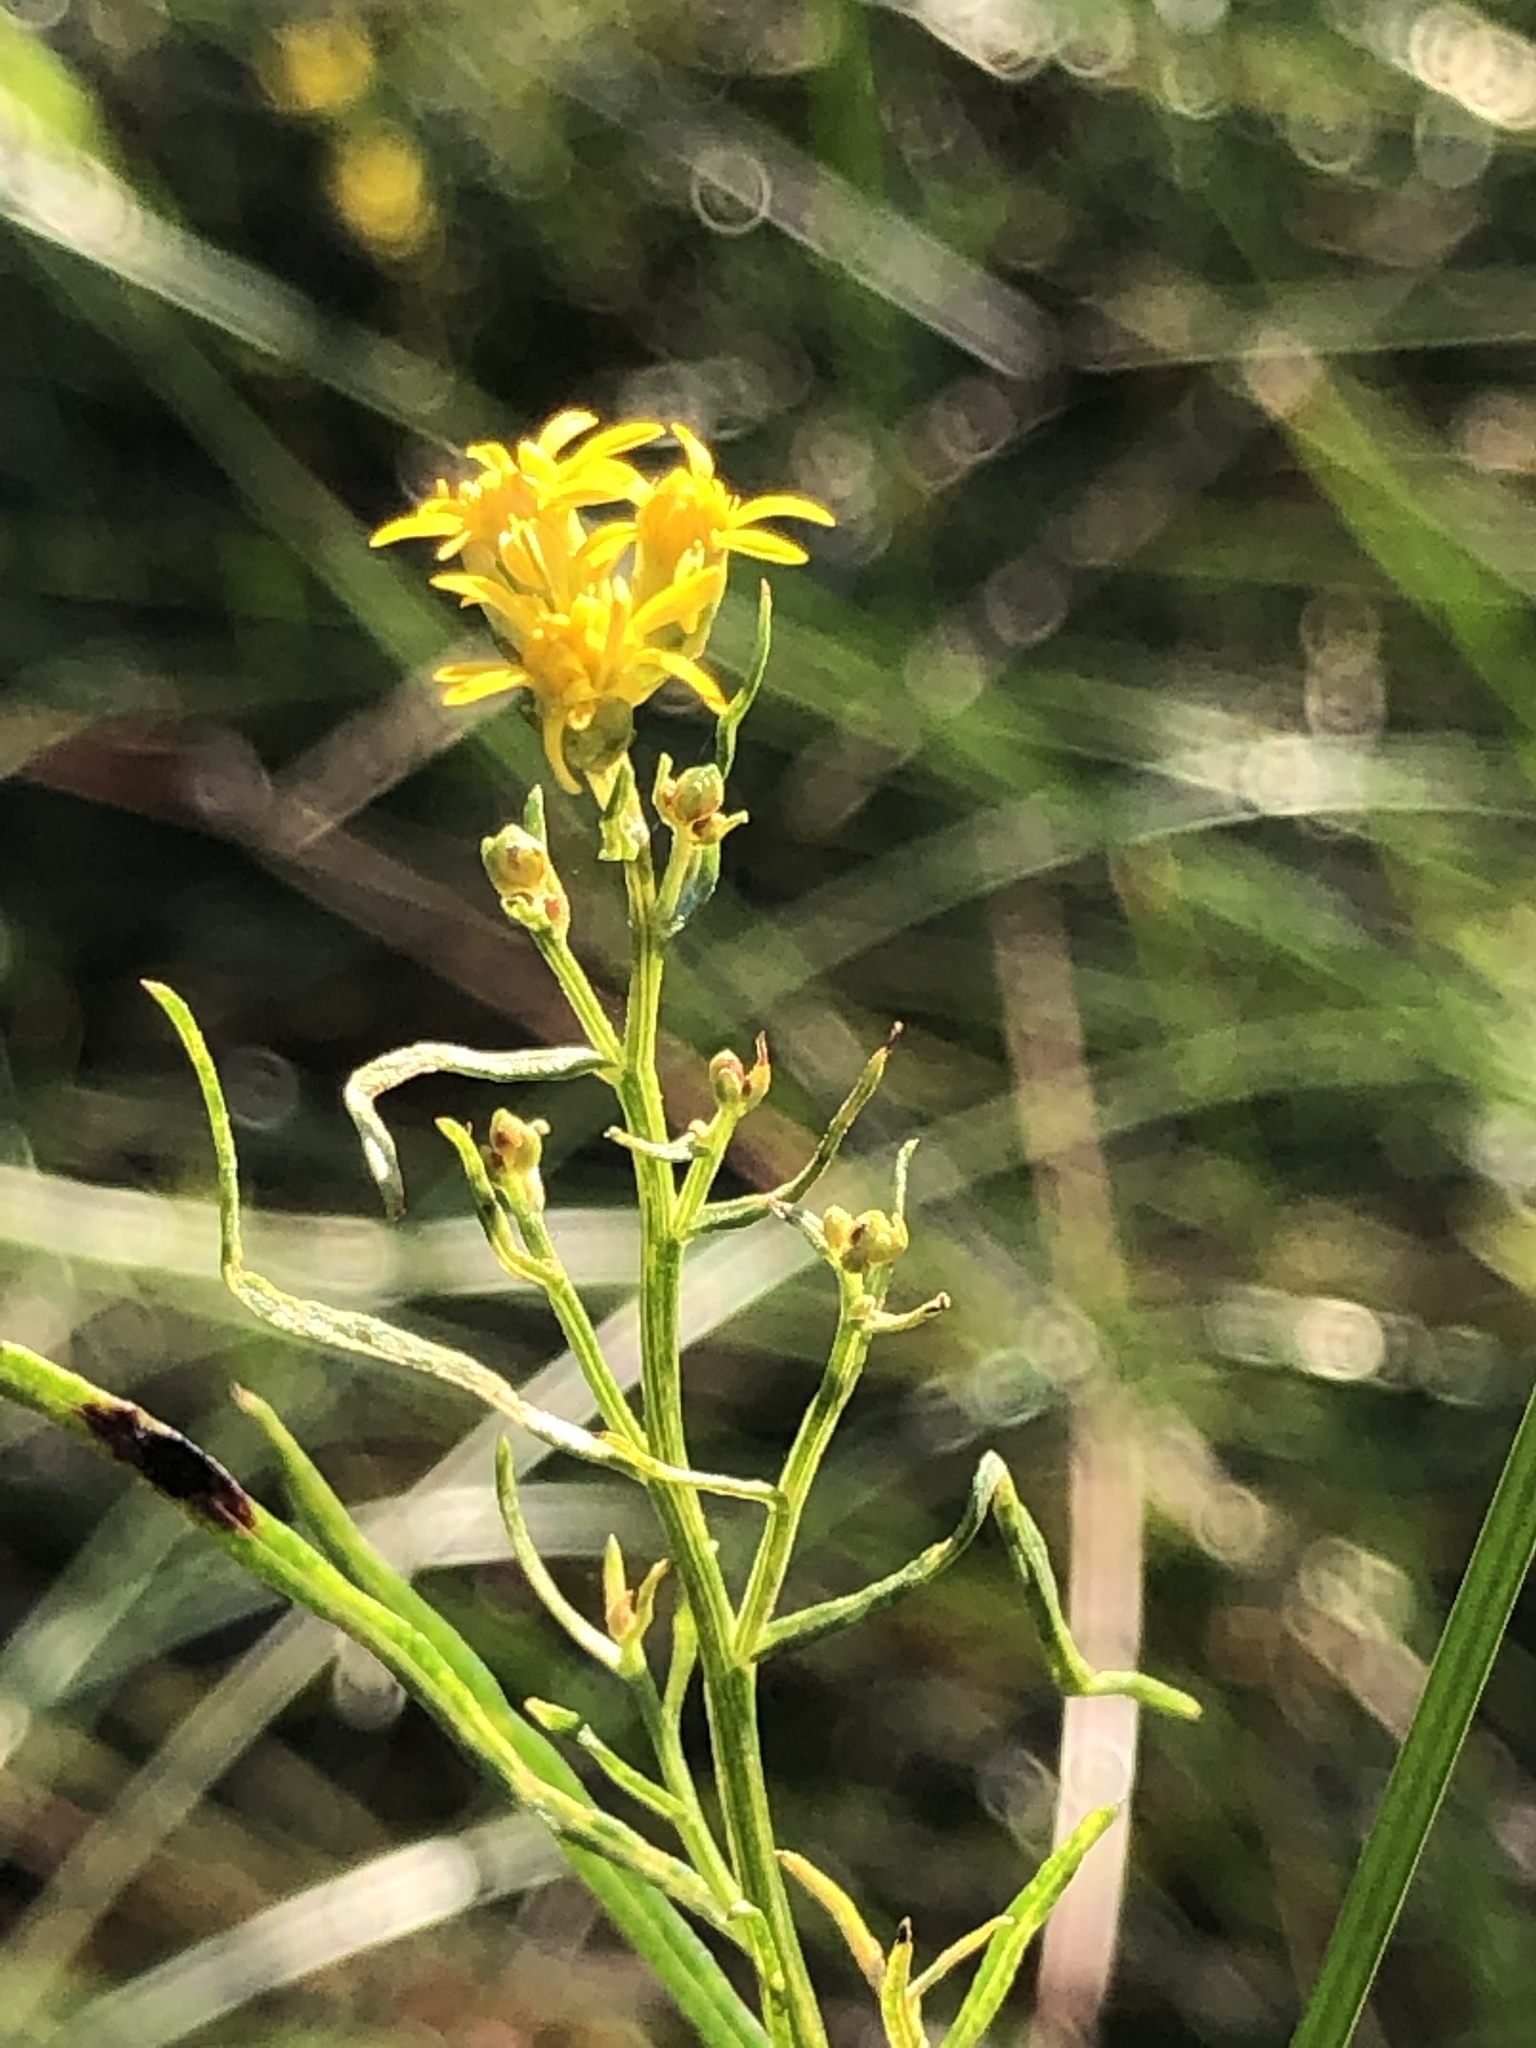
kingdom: Plantae
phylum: Tracheophyta
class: Magnoliopsida
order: Asterales
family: Asteraceae
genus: Euthamia
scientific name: Euthamia caroliniana
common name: Coastal plain goldentop
